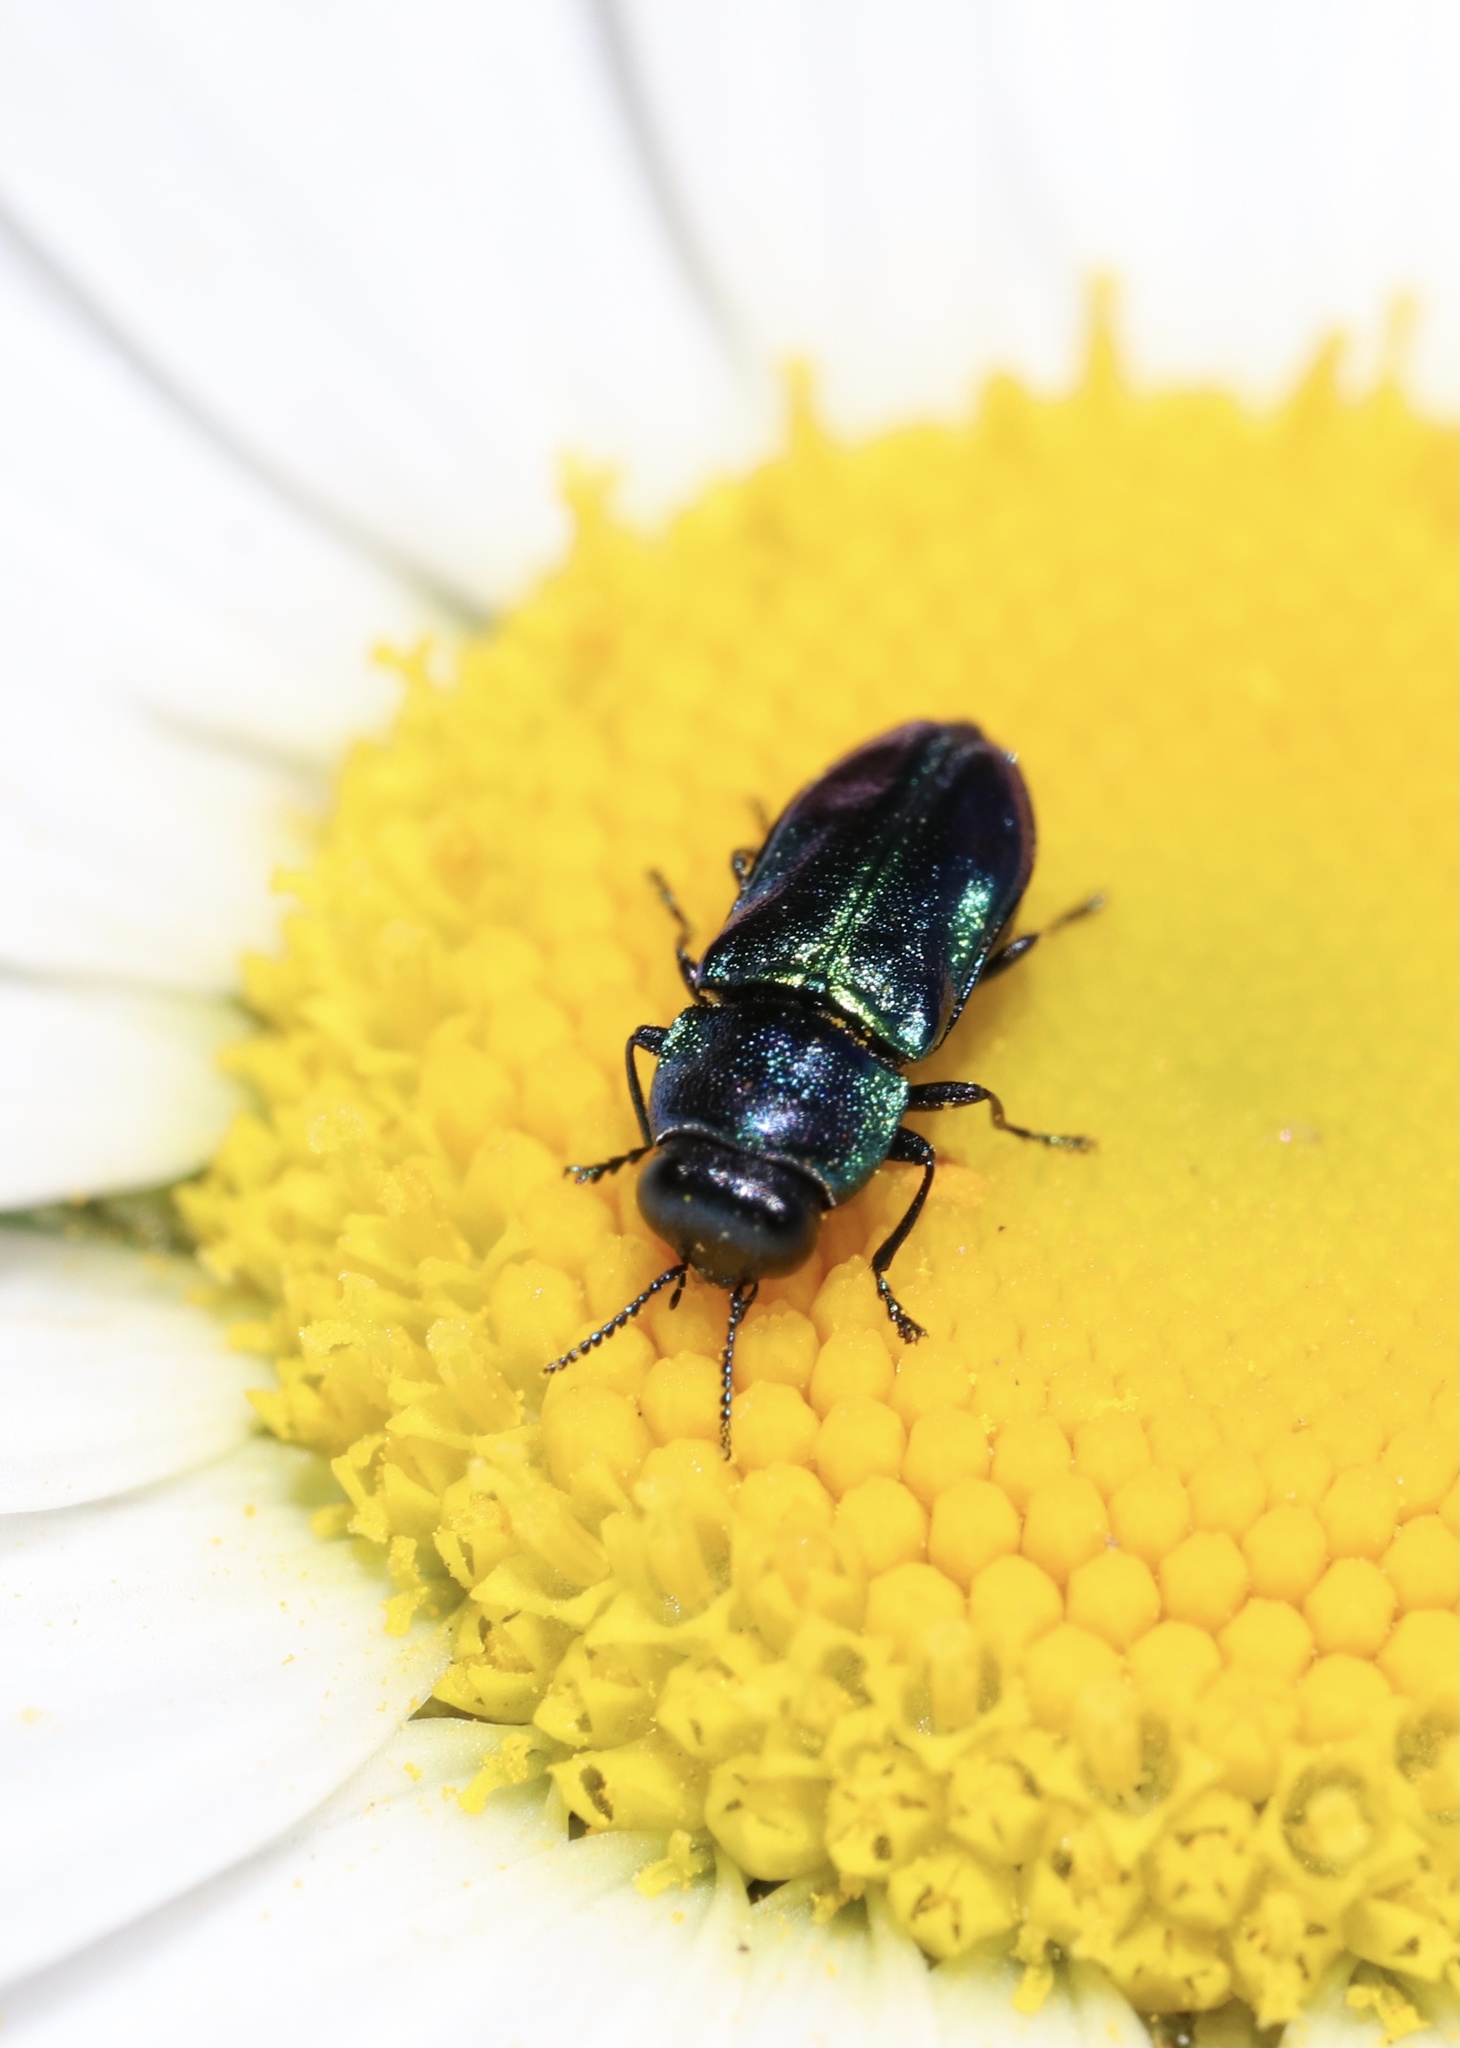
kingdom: Animalia
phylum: Arthropoda
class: Insecta
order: Coleoptera
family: Buprestidae
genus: Bilyaxia
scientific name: Bilyaxia concinna
